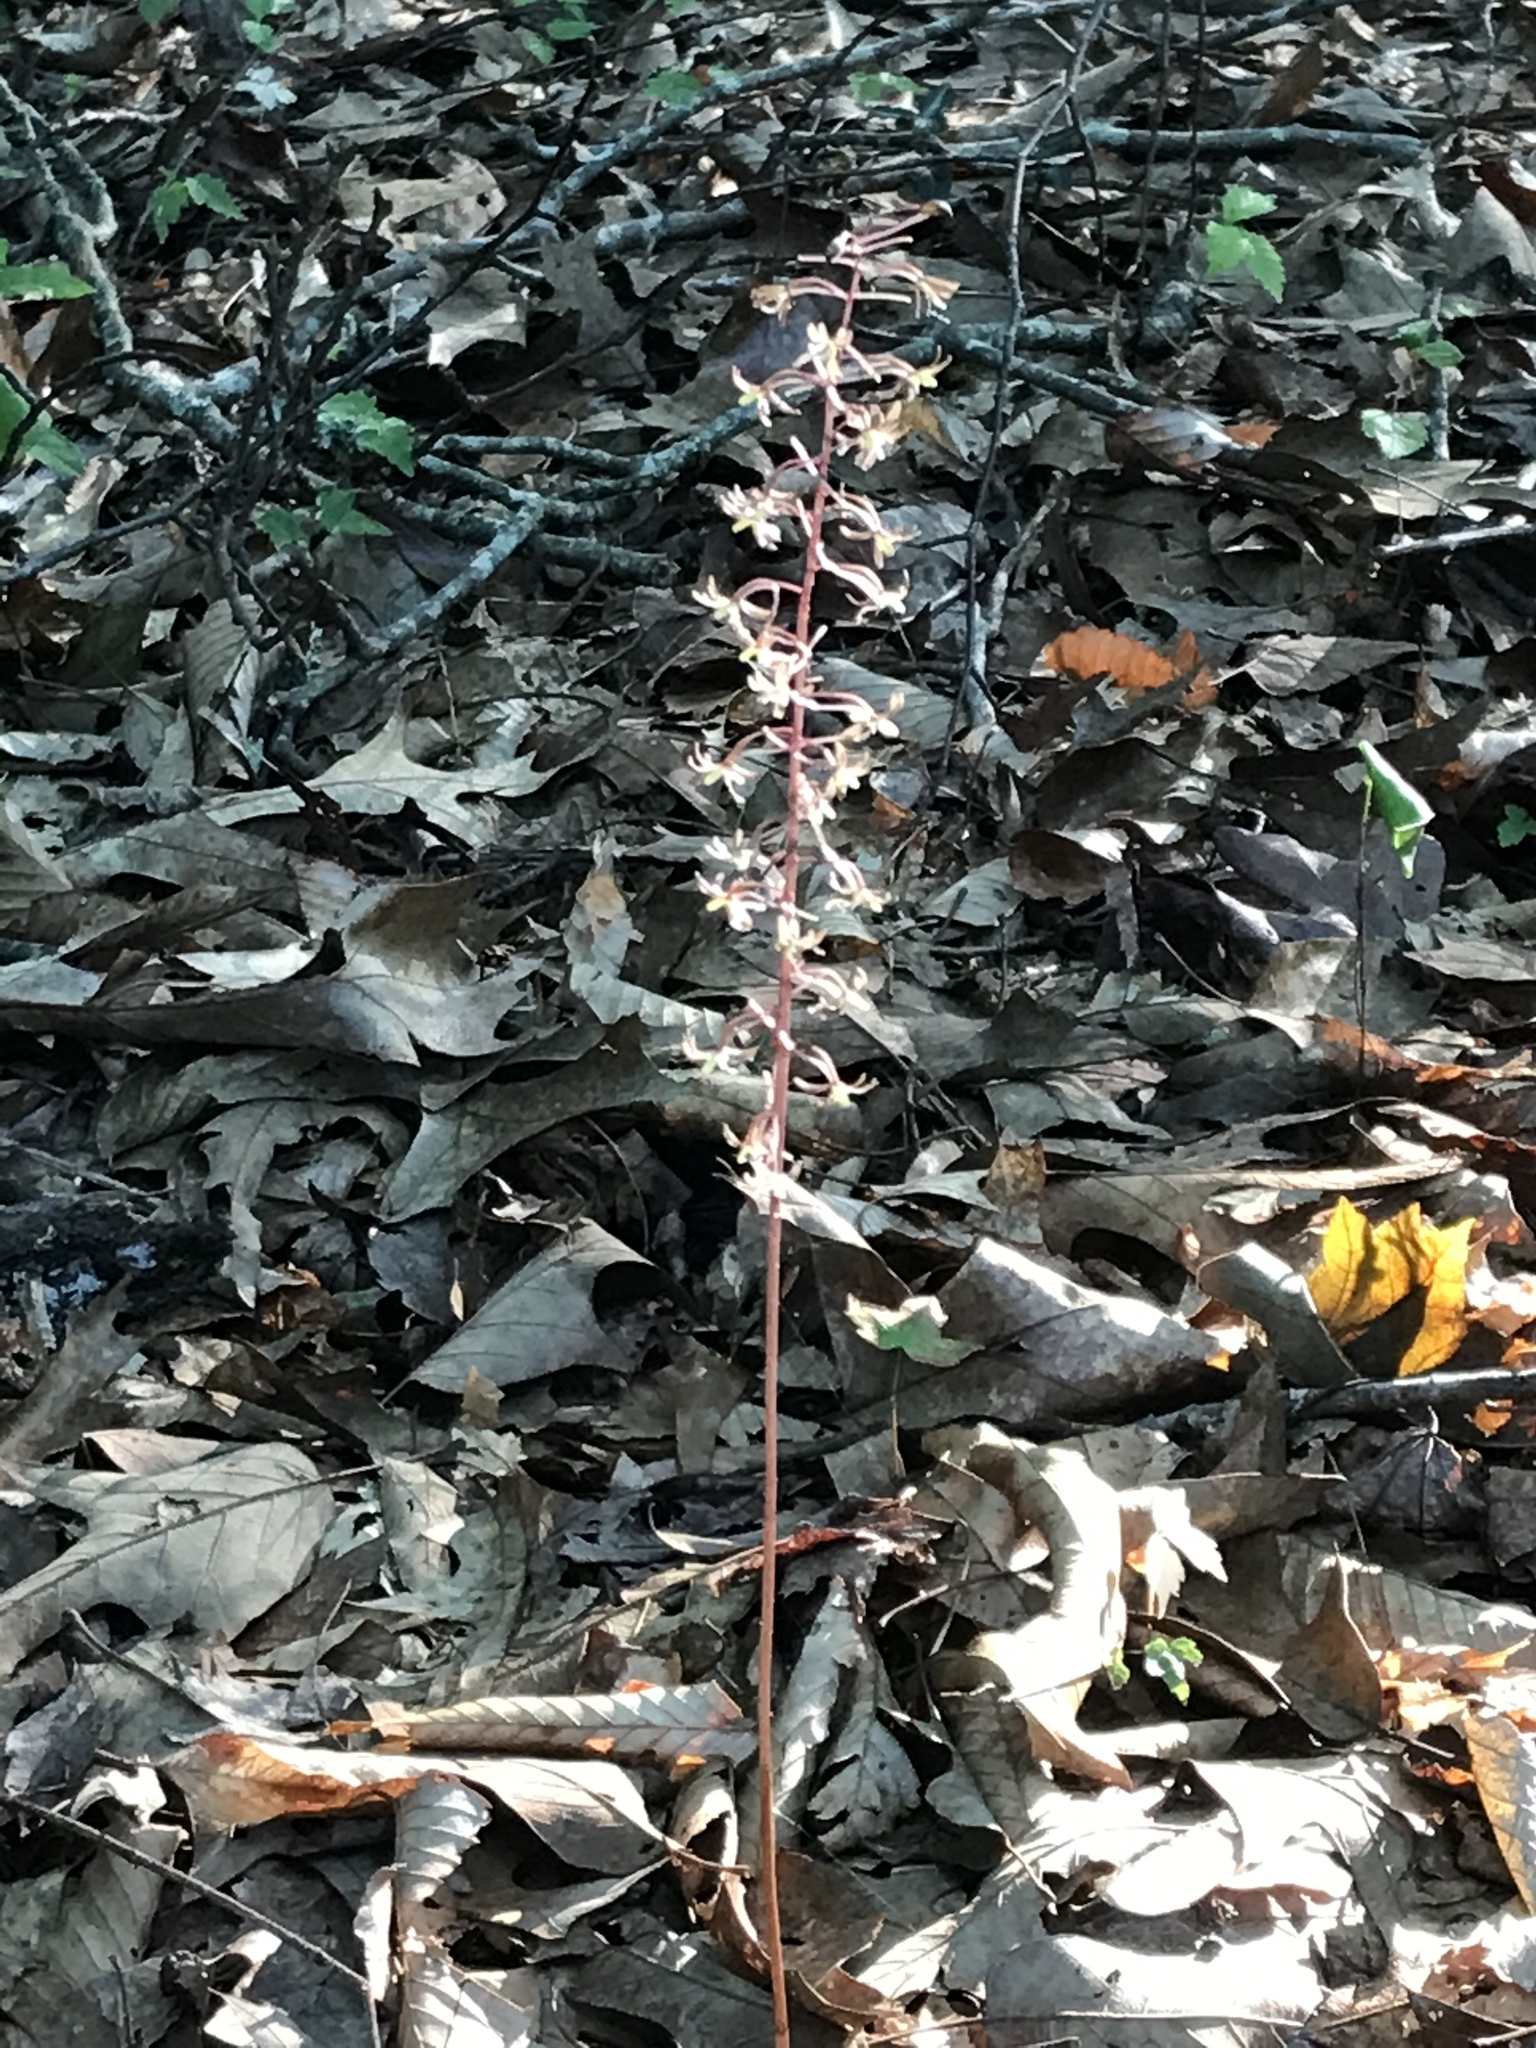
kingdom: Plantae
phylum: Tracheophyta
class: Liliopsida
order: Asparagales
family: Orchidaceae
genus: Tipularia
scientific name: Tipularia discolor
